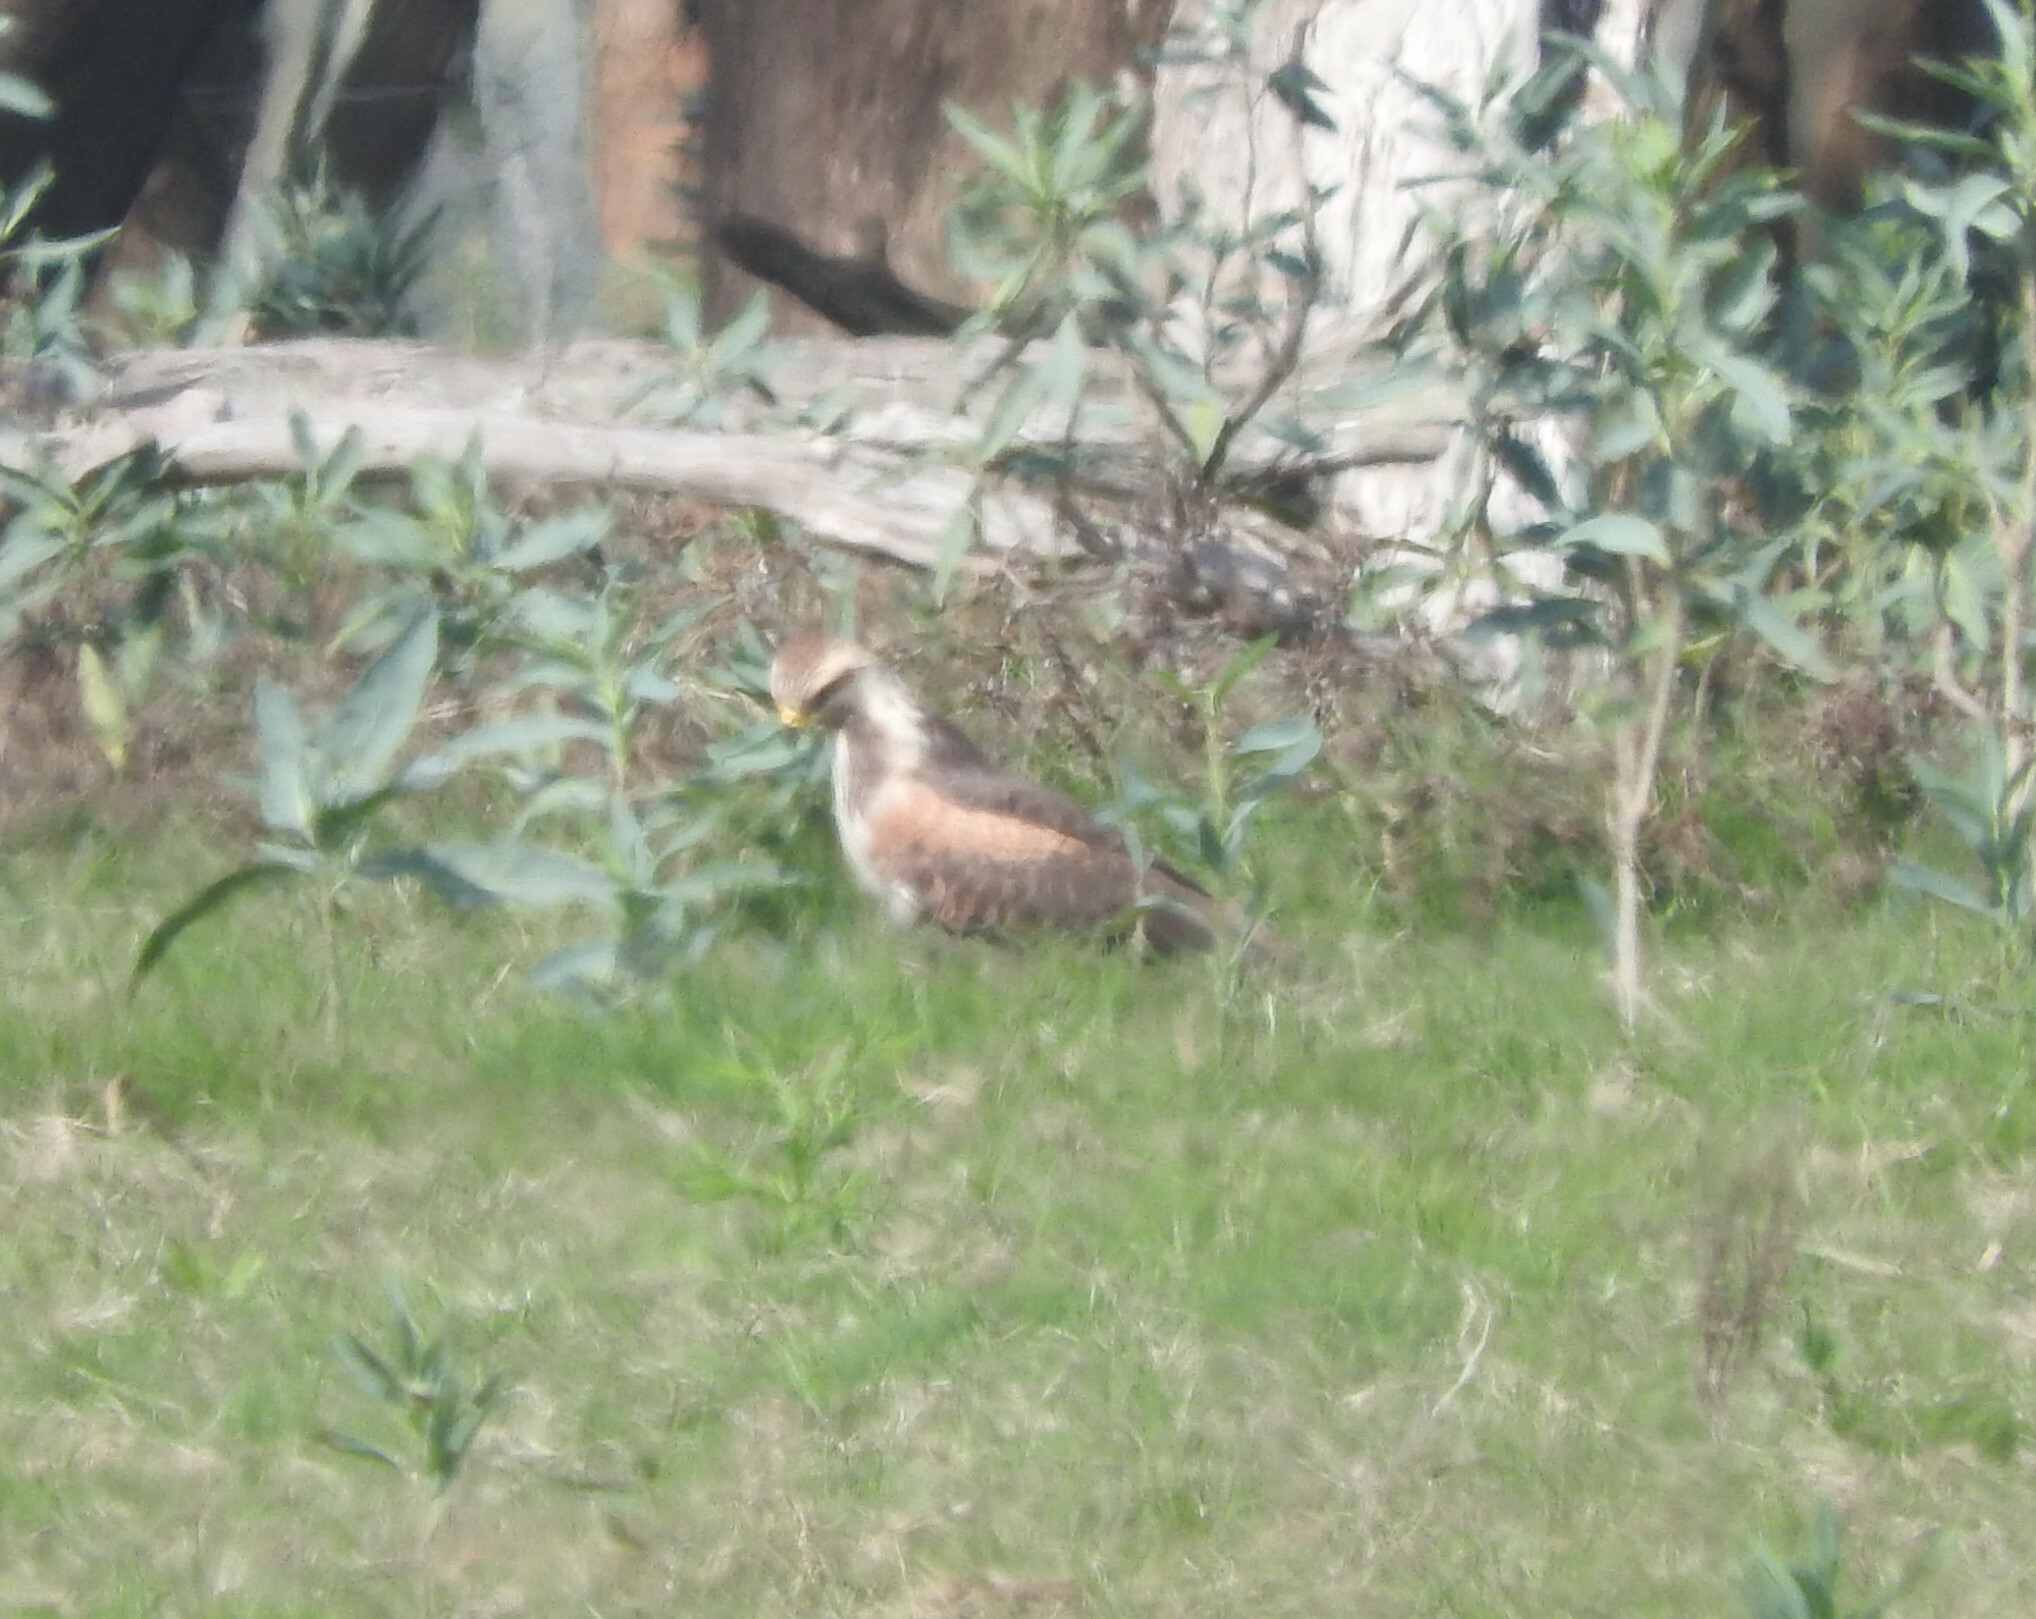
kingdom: Animalia
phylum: Chordata
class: Aves
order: Accipitriformes
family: Accipitridae
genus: Buteogallus
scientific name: Buteogallus meridionalis
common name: Savanna hawk
